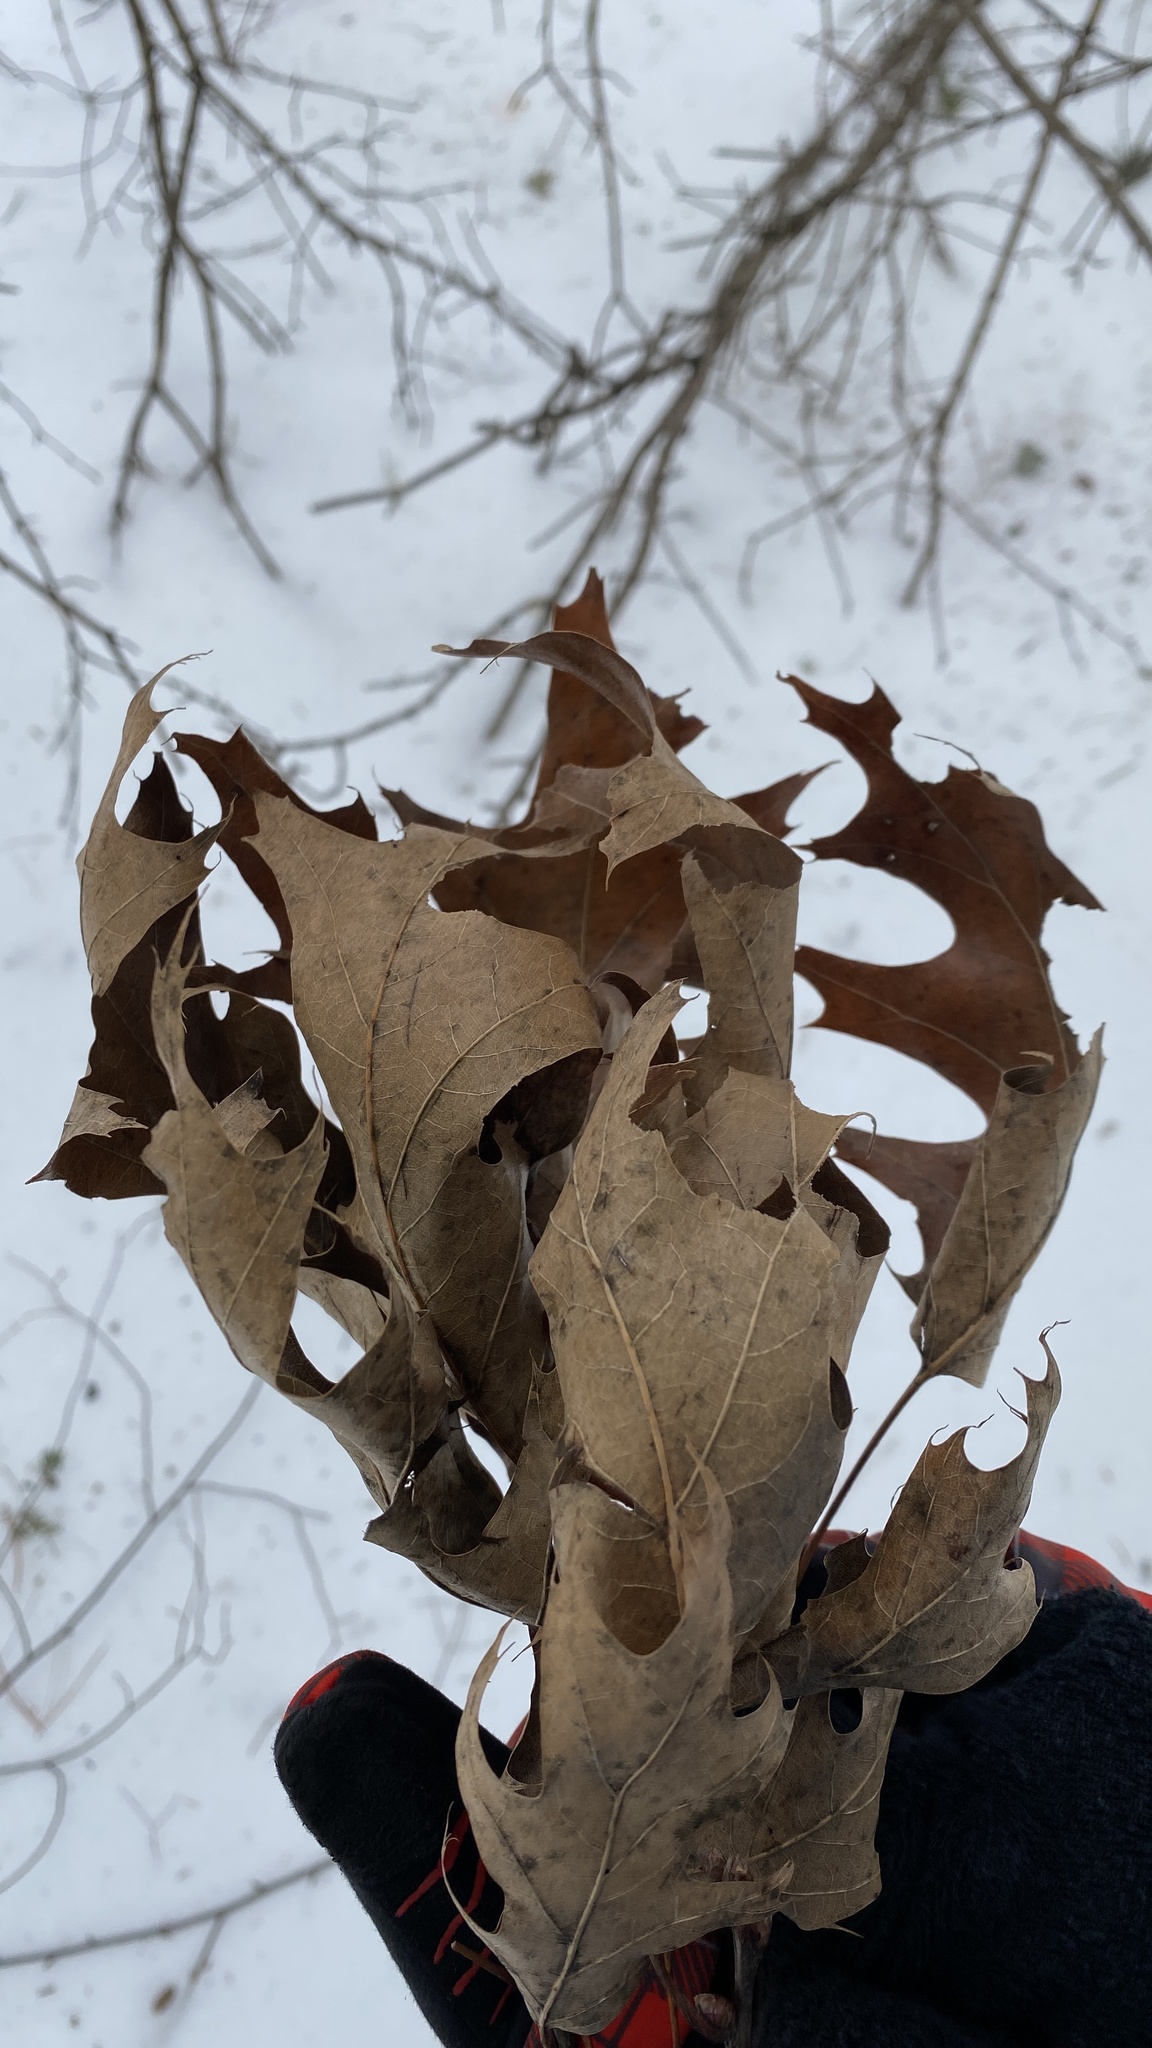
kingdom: Plantae
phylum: Tracheophyta
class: Magnoliopsida
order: Fagales
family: Fagaceae
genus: Quercus
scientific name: Quercus rubra
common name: Red oak
